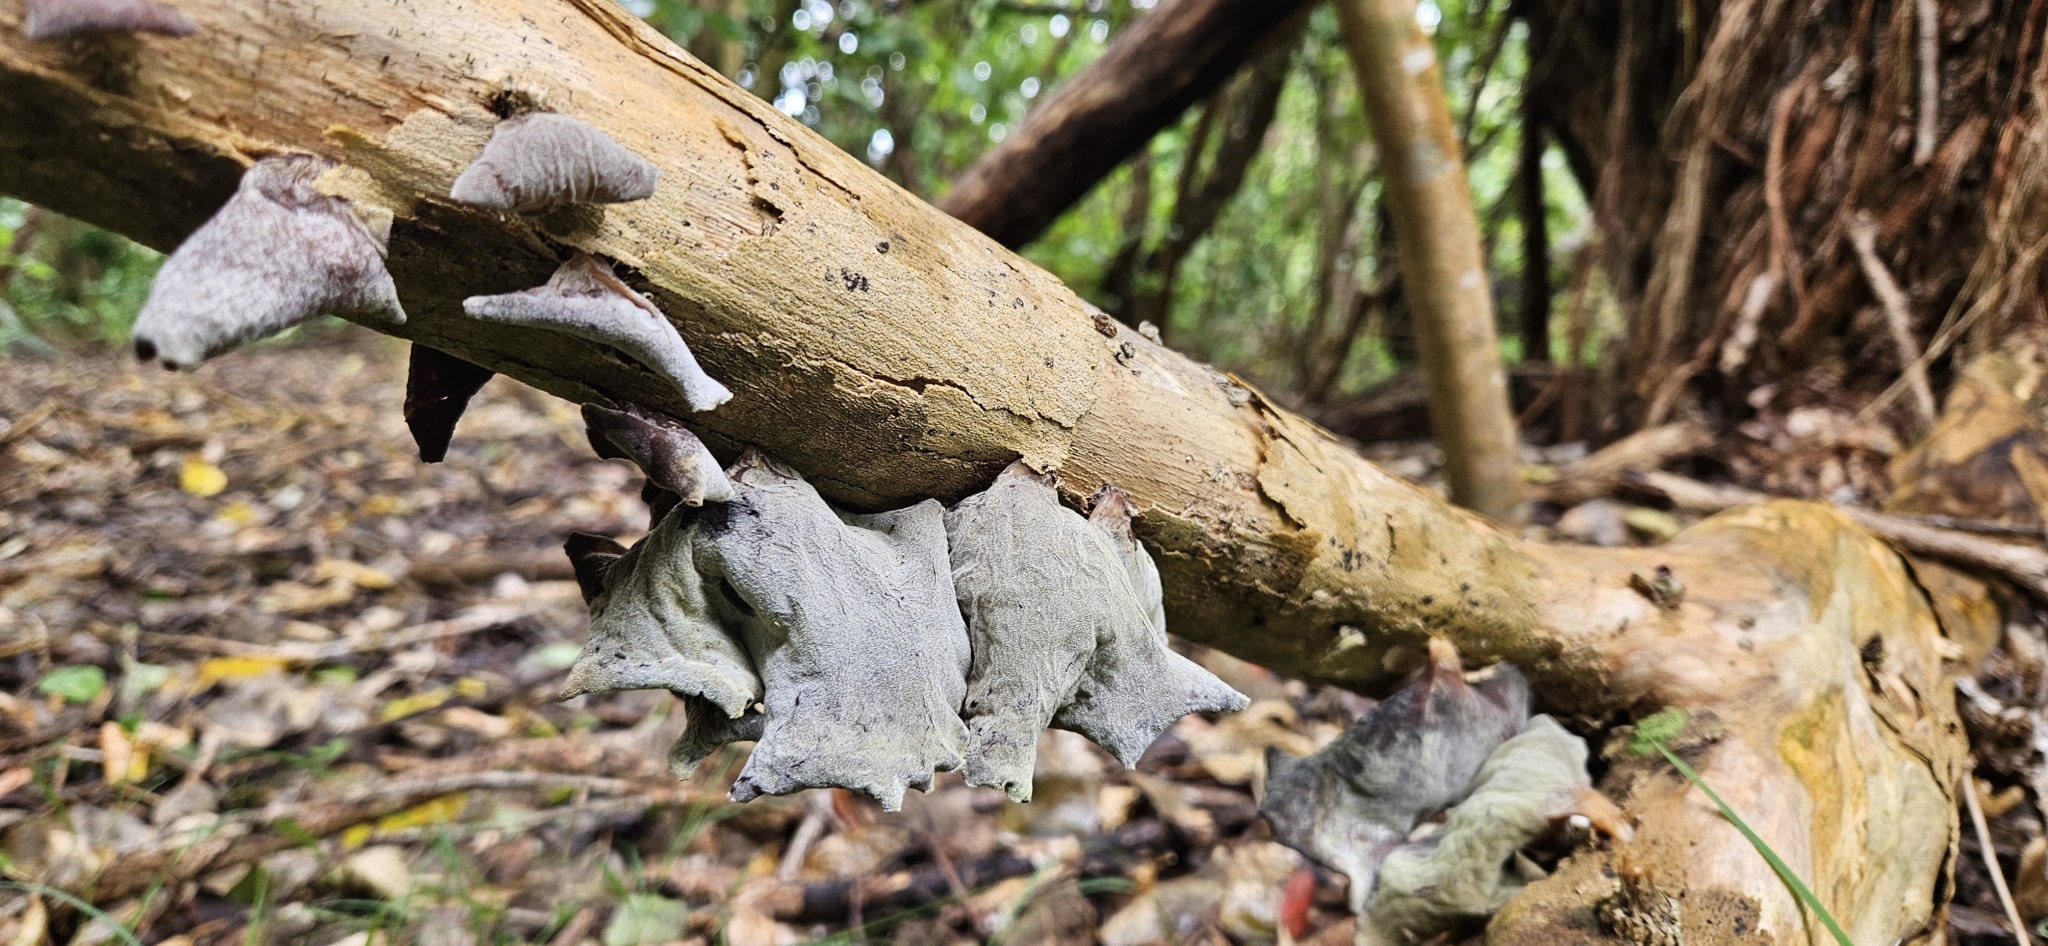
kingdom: Fungi
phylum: Basidiomycota
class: Agaricomycetes
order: Auriculariales
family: Auriculariaceae
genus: Auricularia
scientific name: Auricularia cornea
